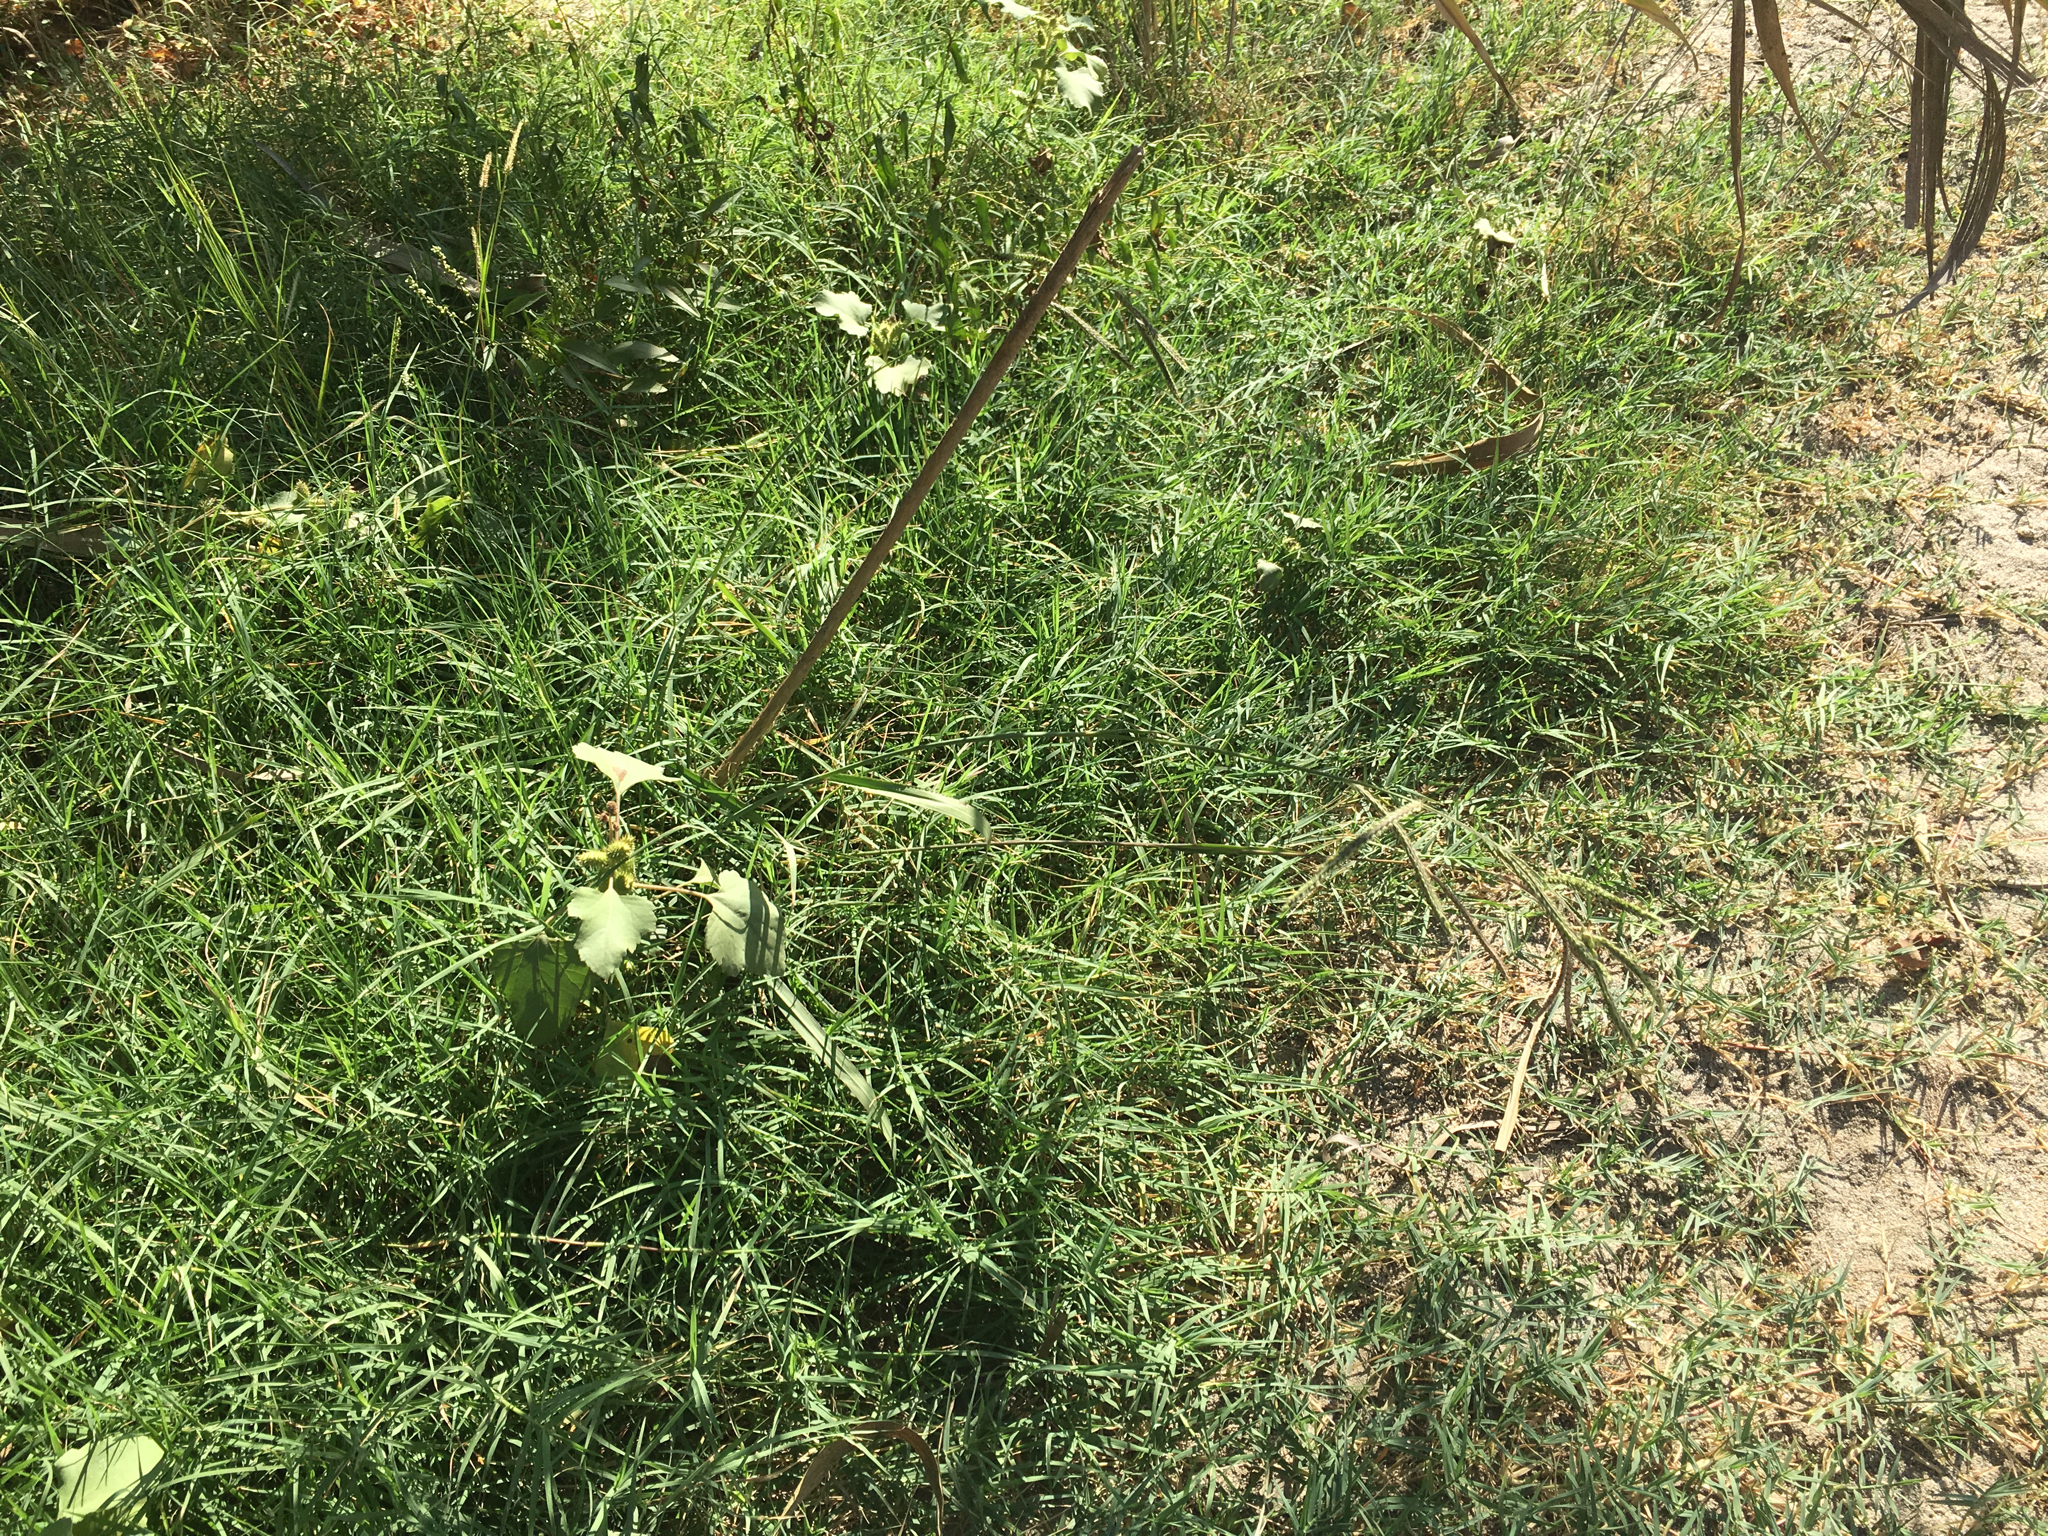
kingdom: Plantae
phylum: Tracheophyta
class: Liliopsida
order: Poales
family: Poaceae
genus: Paspalum
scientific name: Paspalum dilatatum
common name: Dallisgrass
